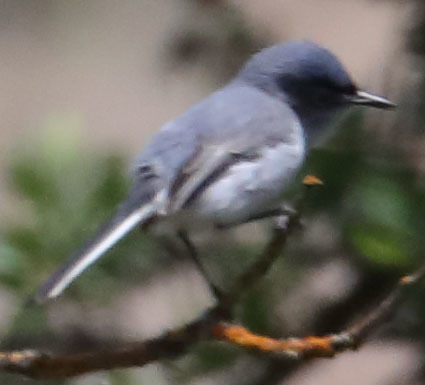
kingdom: Animalia
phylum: Chordata
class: Aves
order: Passeriformes
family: Polioptilidae
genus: Polioptila
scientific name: Polioptila caerulea
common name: Blue-gray gnatcatcher
